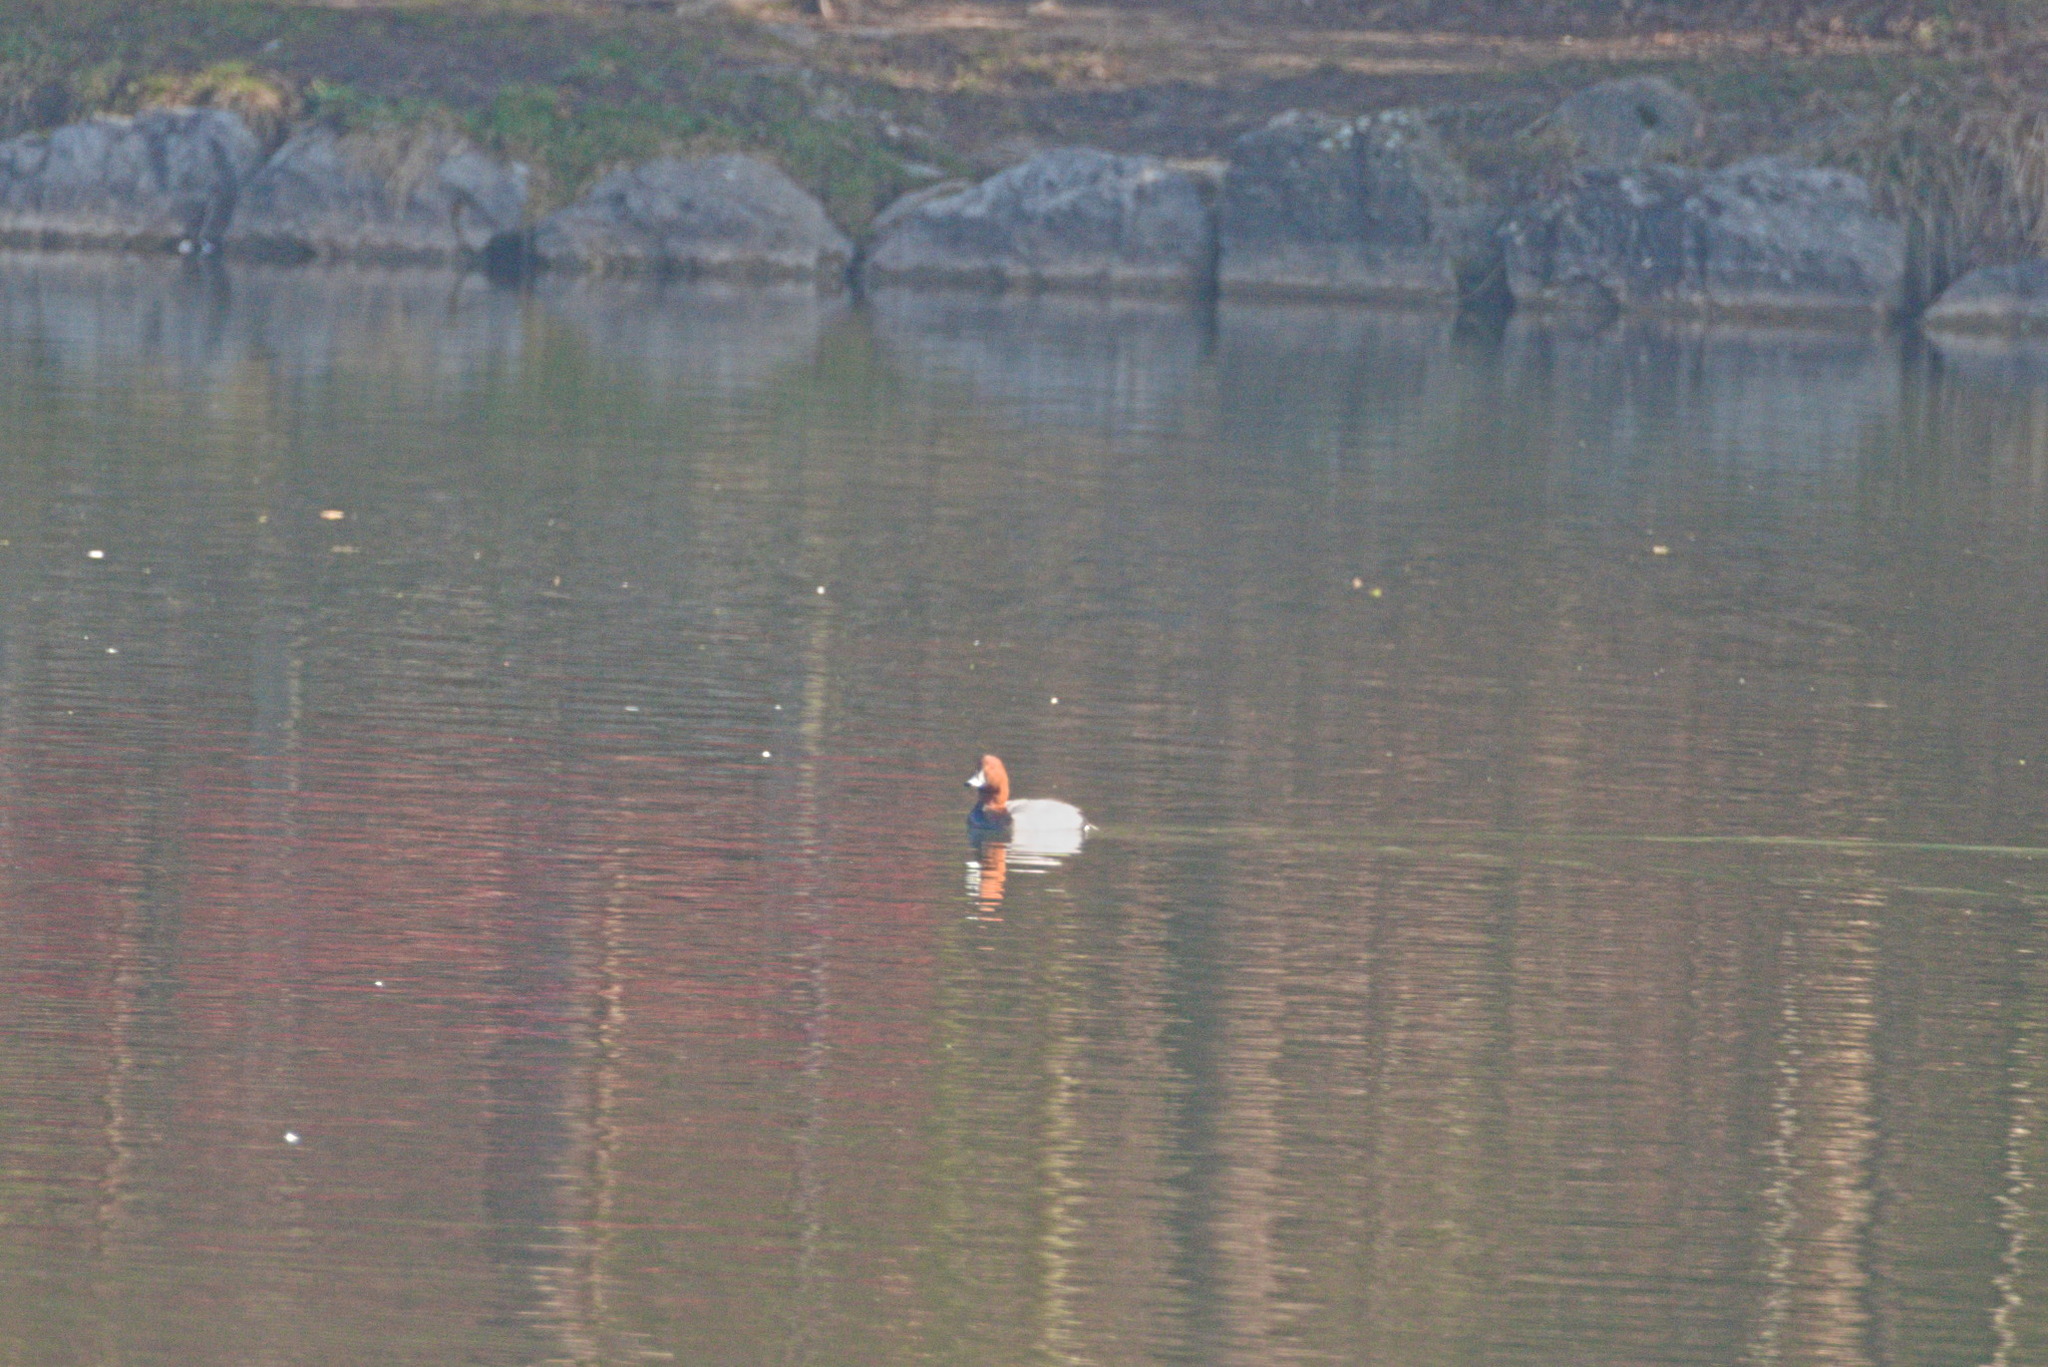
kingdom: Animalia
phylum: Chordata
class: Aves
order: Anseriformes
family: Anatidae
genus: Aythya
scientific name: Aythya ferina
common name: Common pochard
